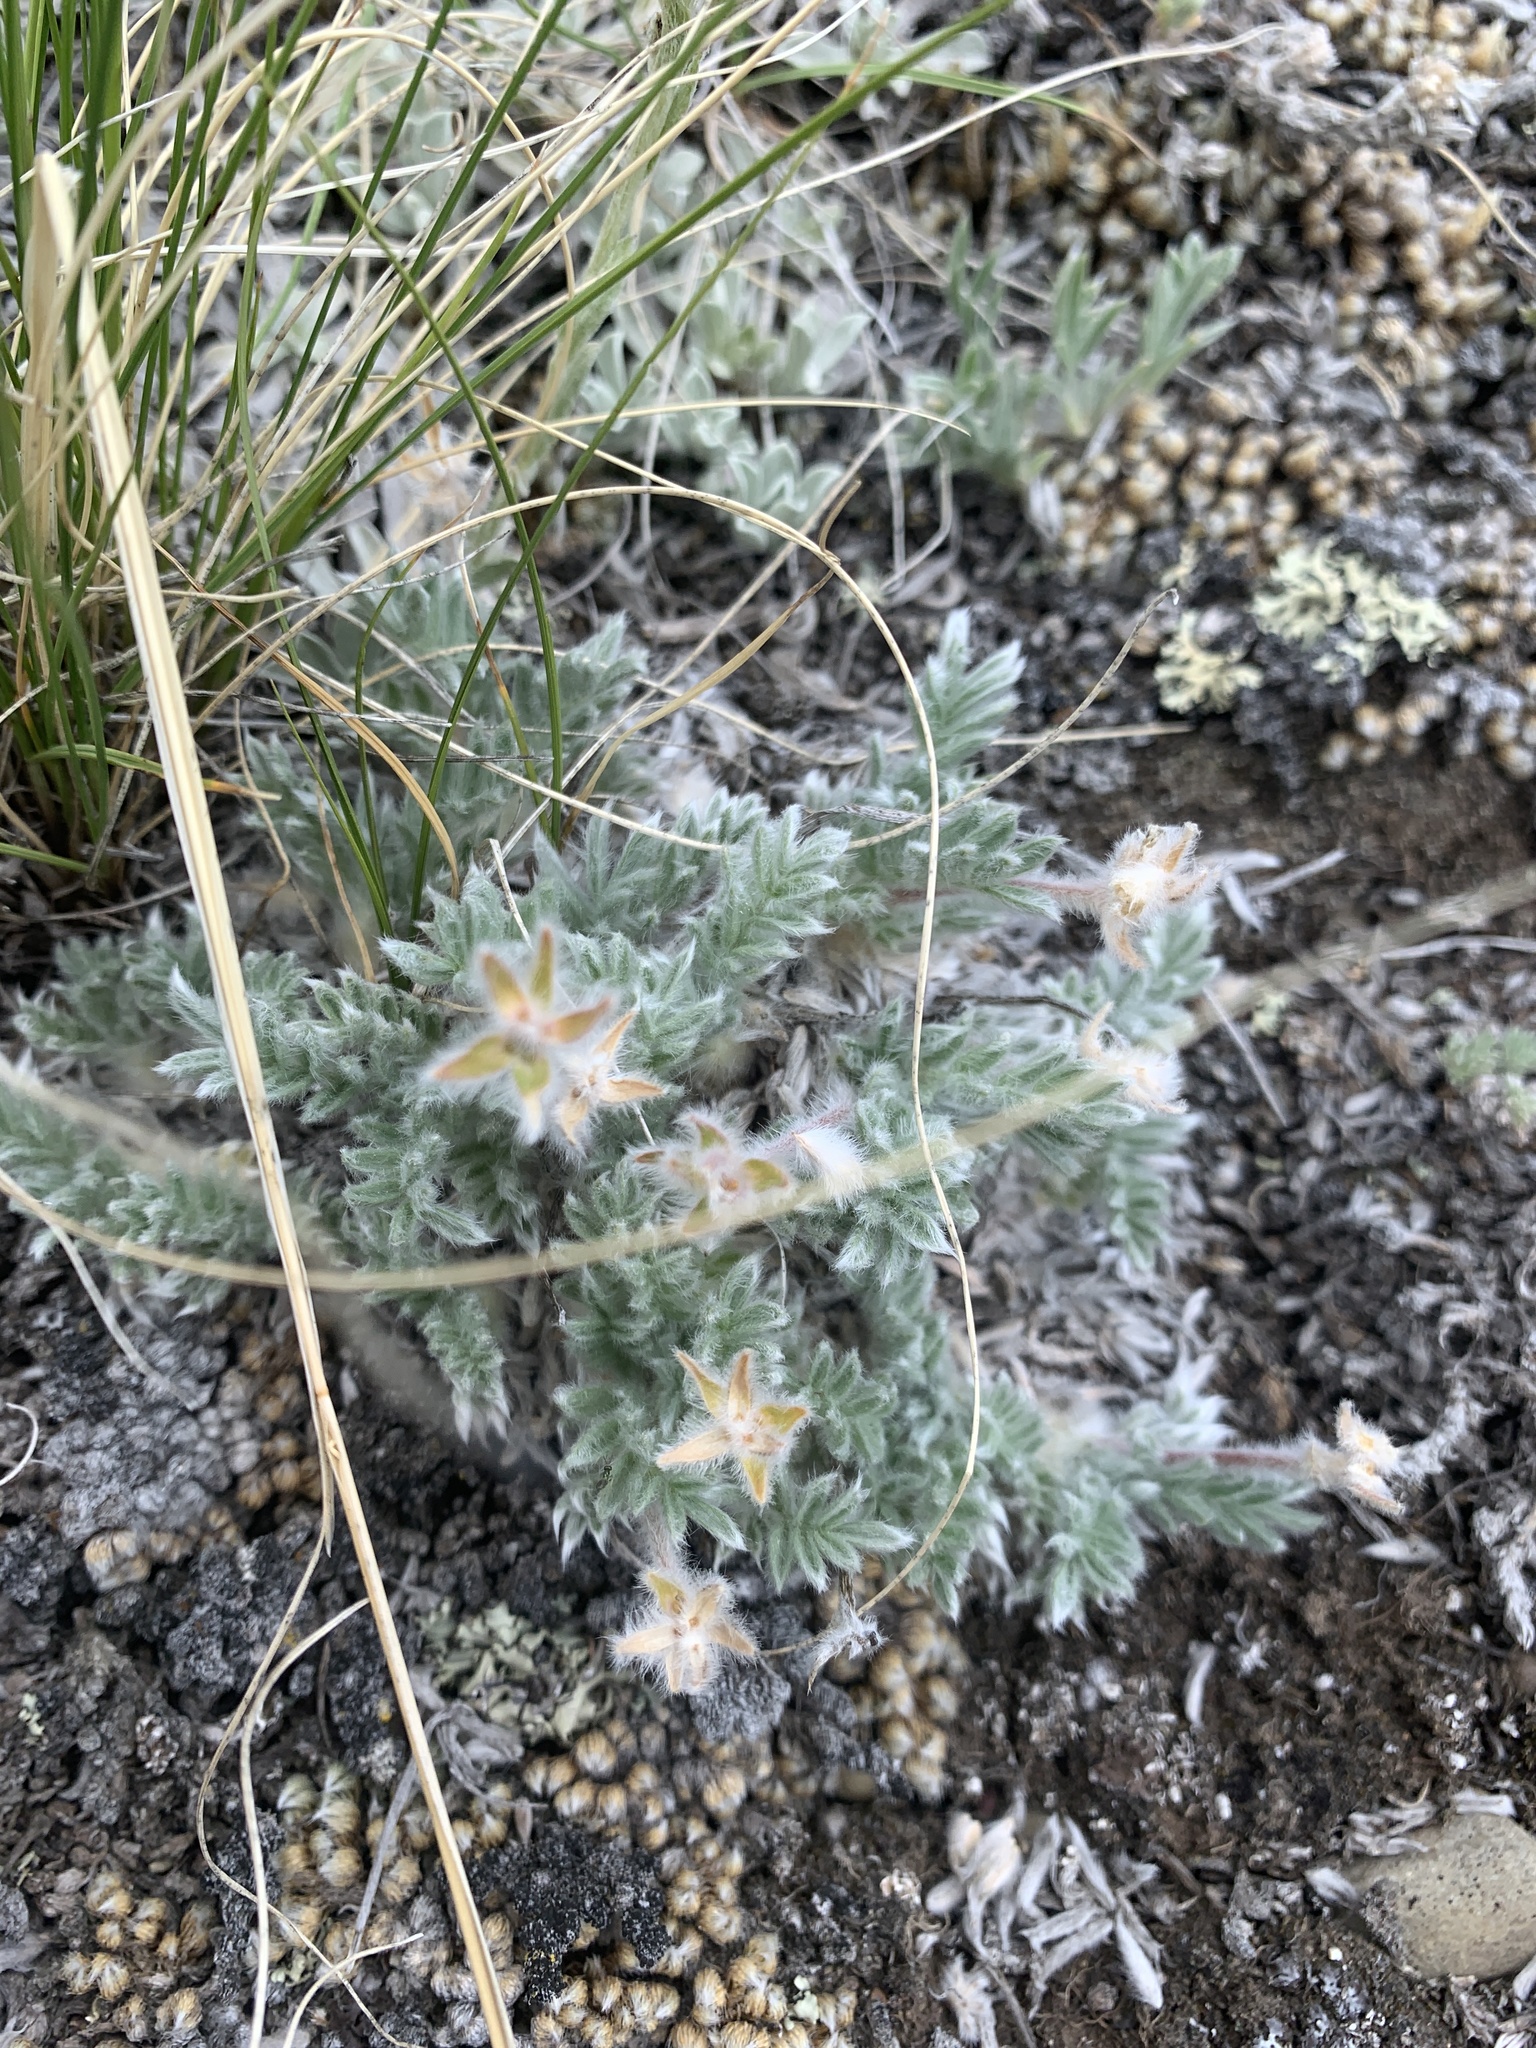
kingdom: Plantae
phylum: Tracheophyta
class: Magnoliopsida
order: Fabales
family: Fabaceae
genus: Oxytropis
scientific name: Oxytropis lagopus
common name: Hare's-foot locoweed
